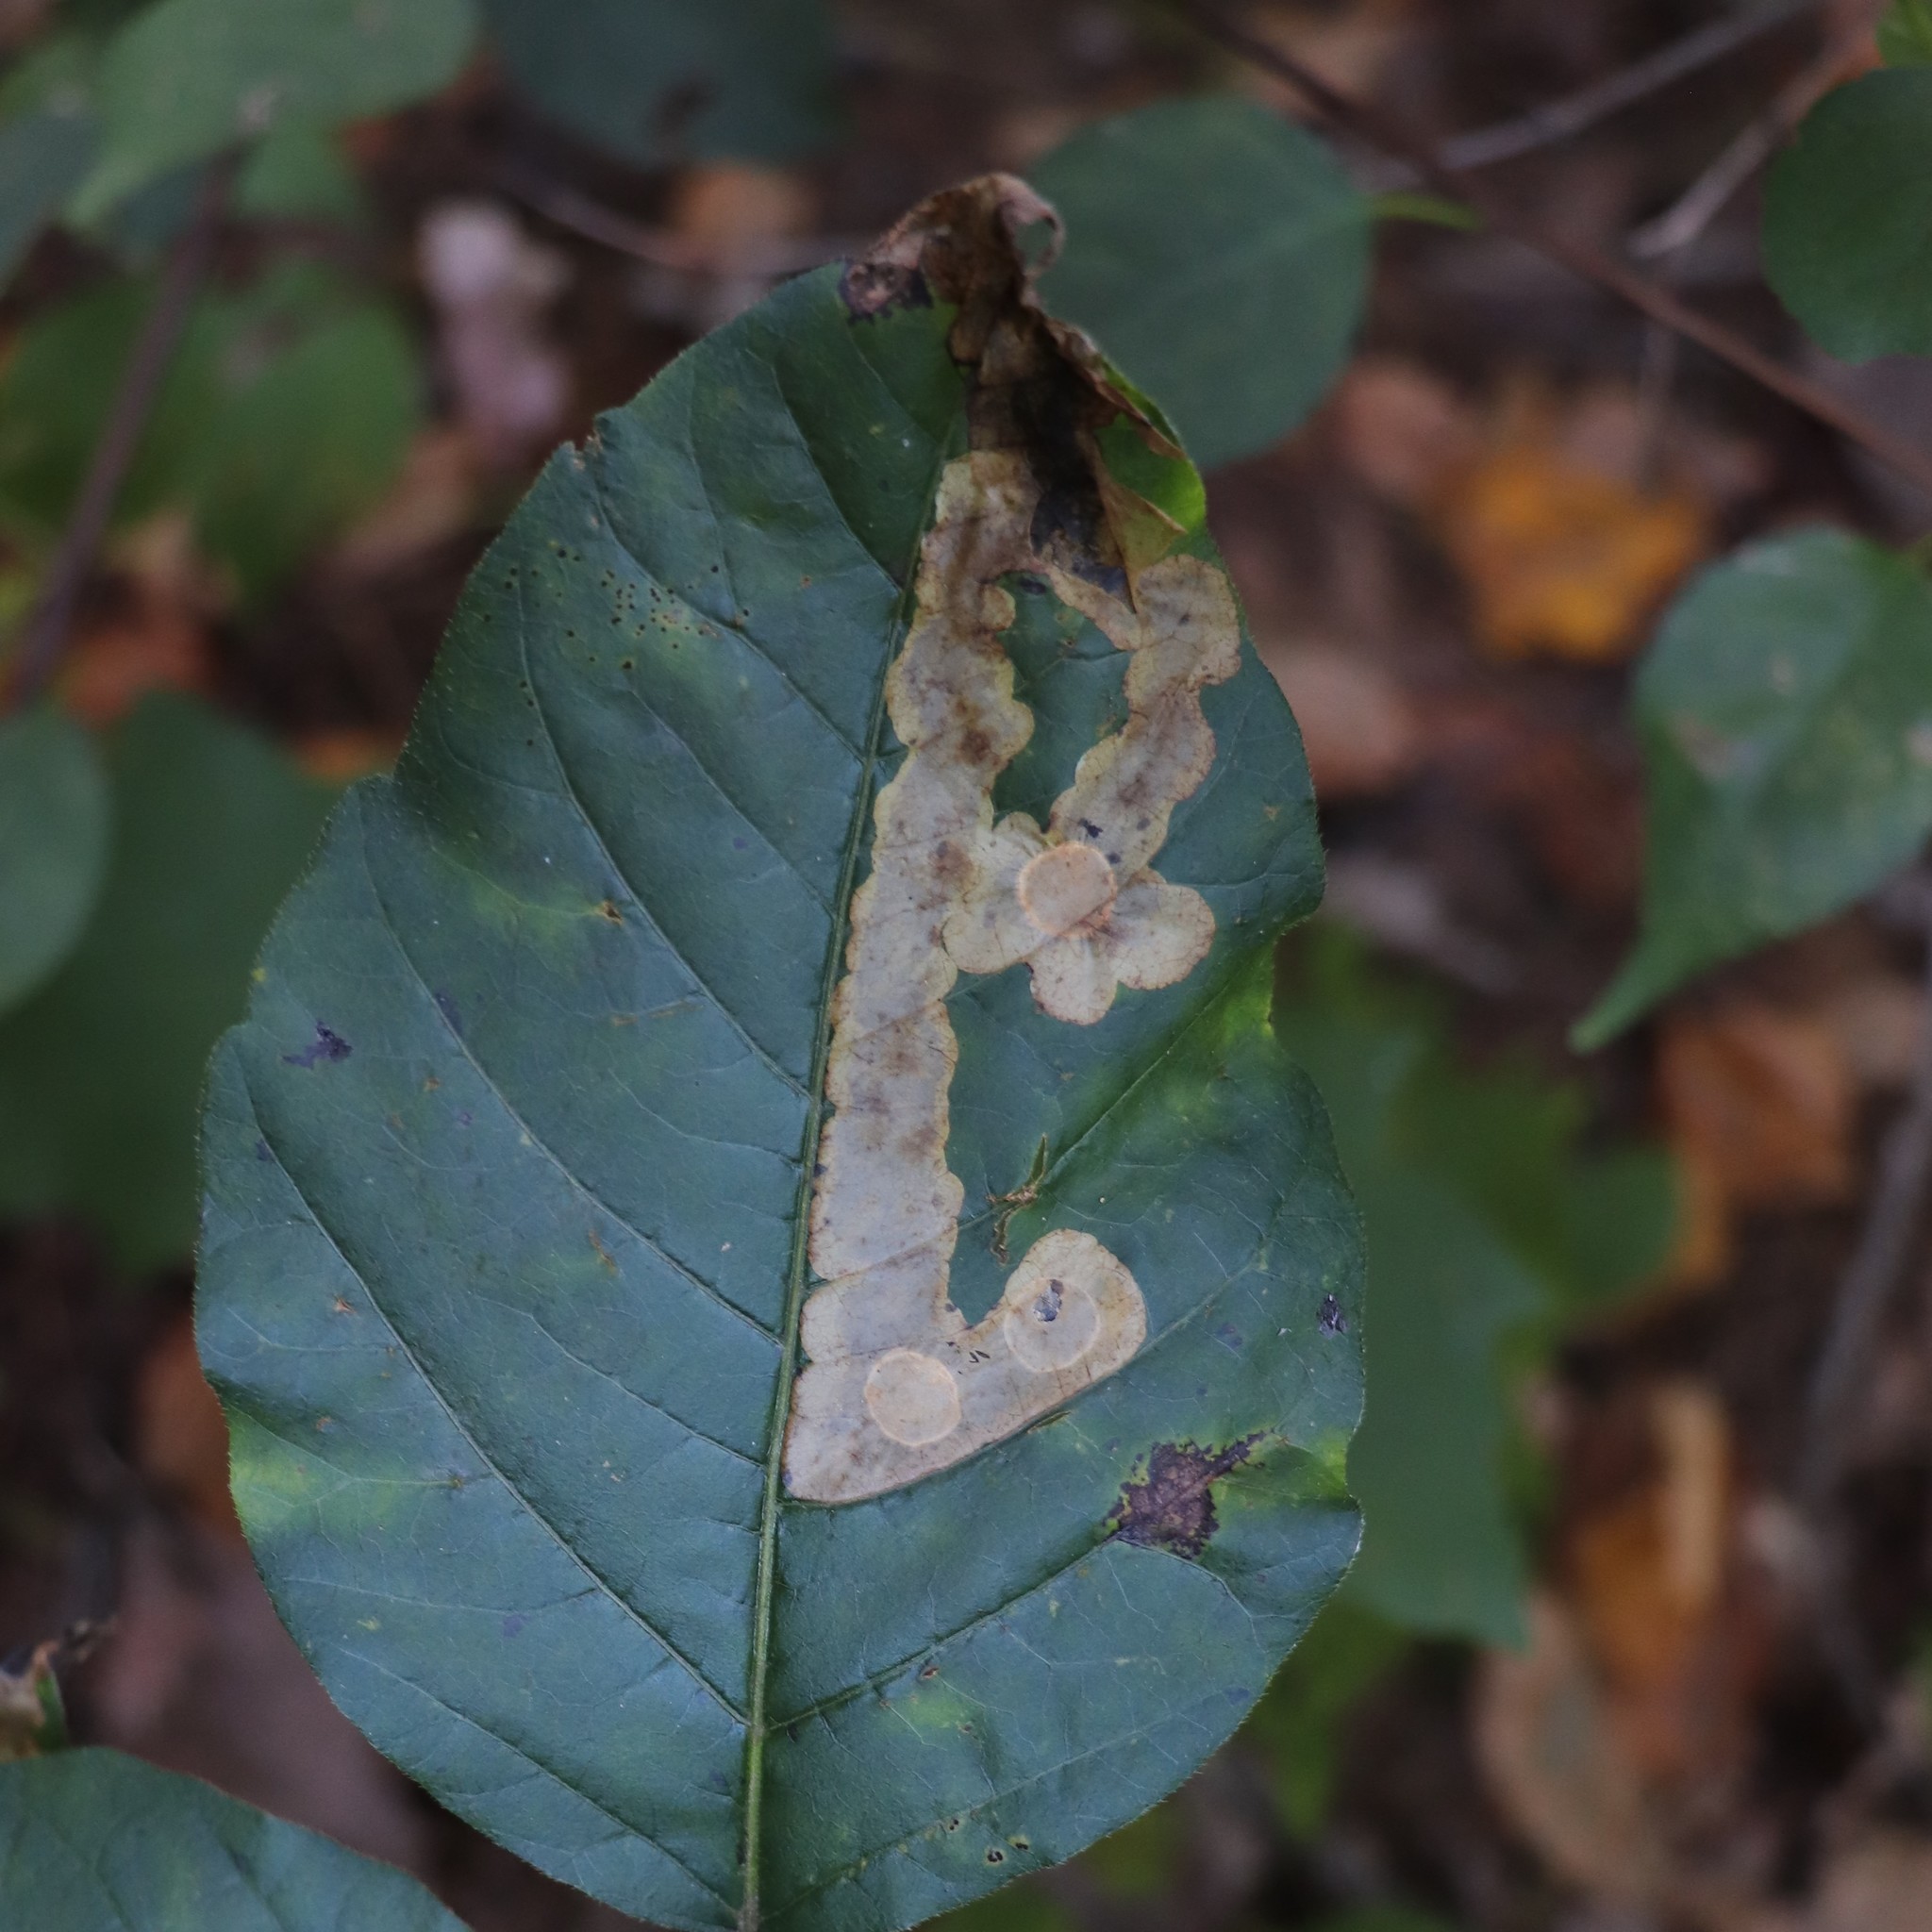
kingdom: Animalia
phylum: Arthropoda
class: Insecta
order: Lepidoptera
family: Gracillariidae
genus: Cameraria
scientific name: Cameraria guttifinitella
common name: Poison ivy leaf-miner moth
